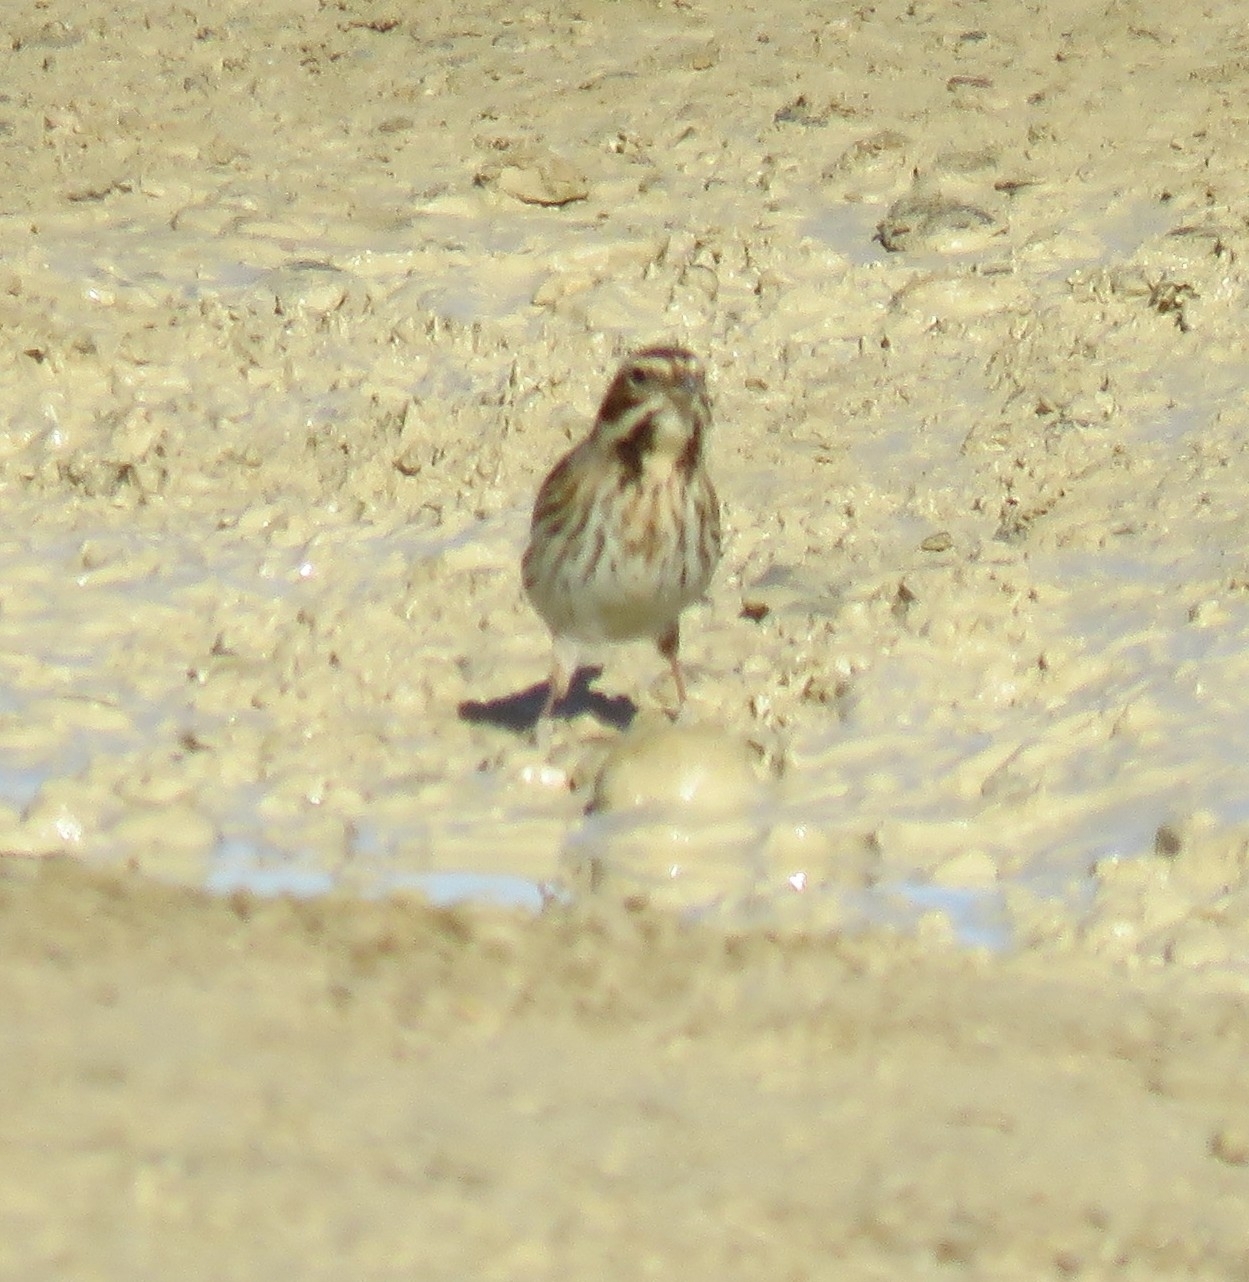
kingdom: Animalia
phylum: Chordata
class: Aves
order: Passeriformes
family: Emberizidae
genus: Emberiza
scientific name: Emberiza schoeniclus
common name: Reed bunting
